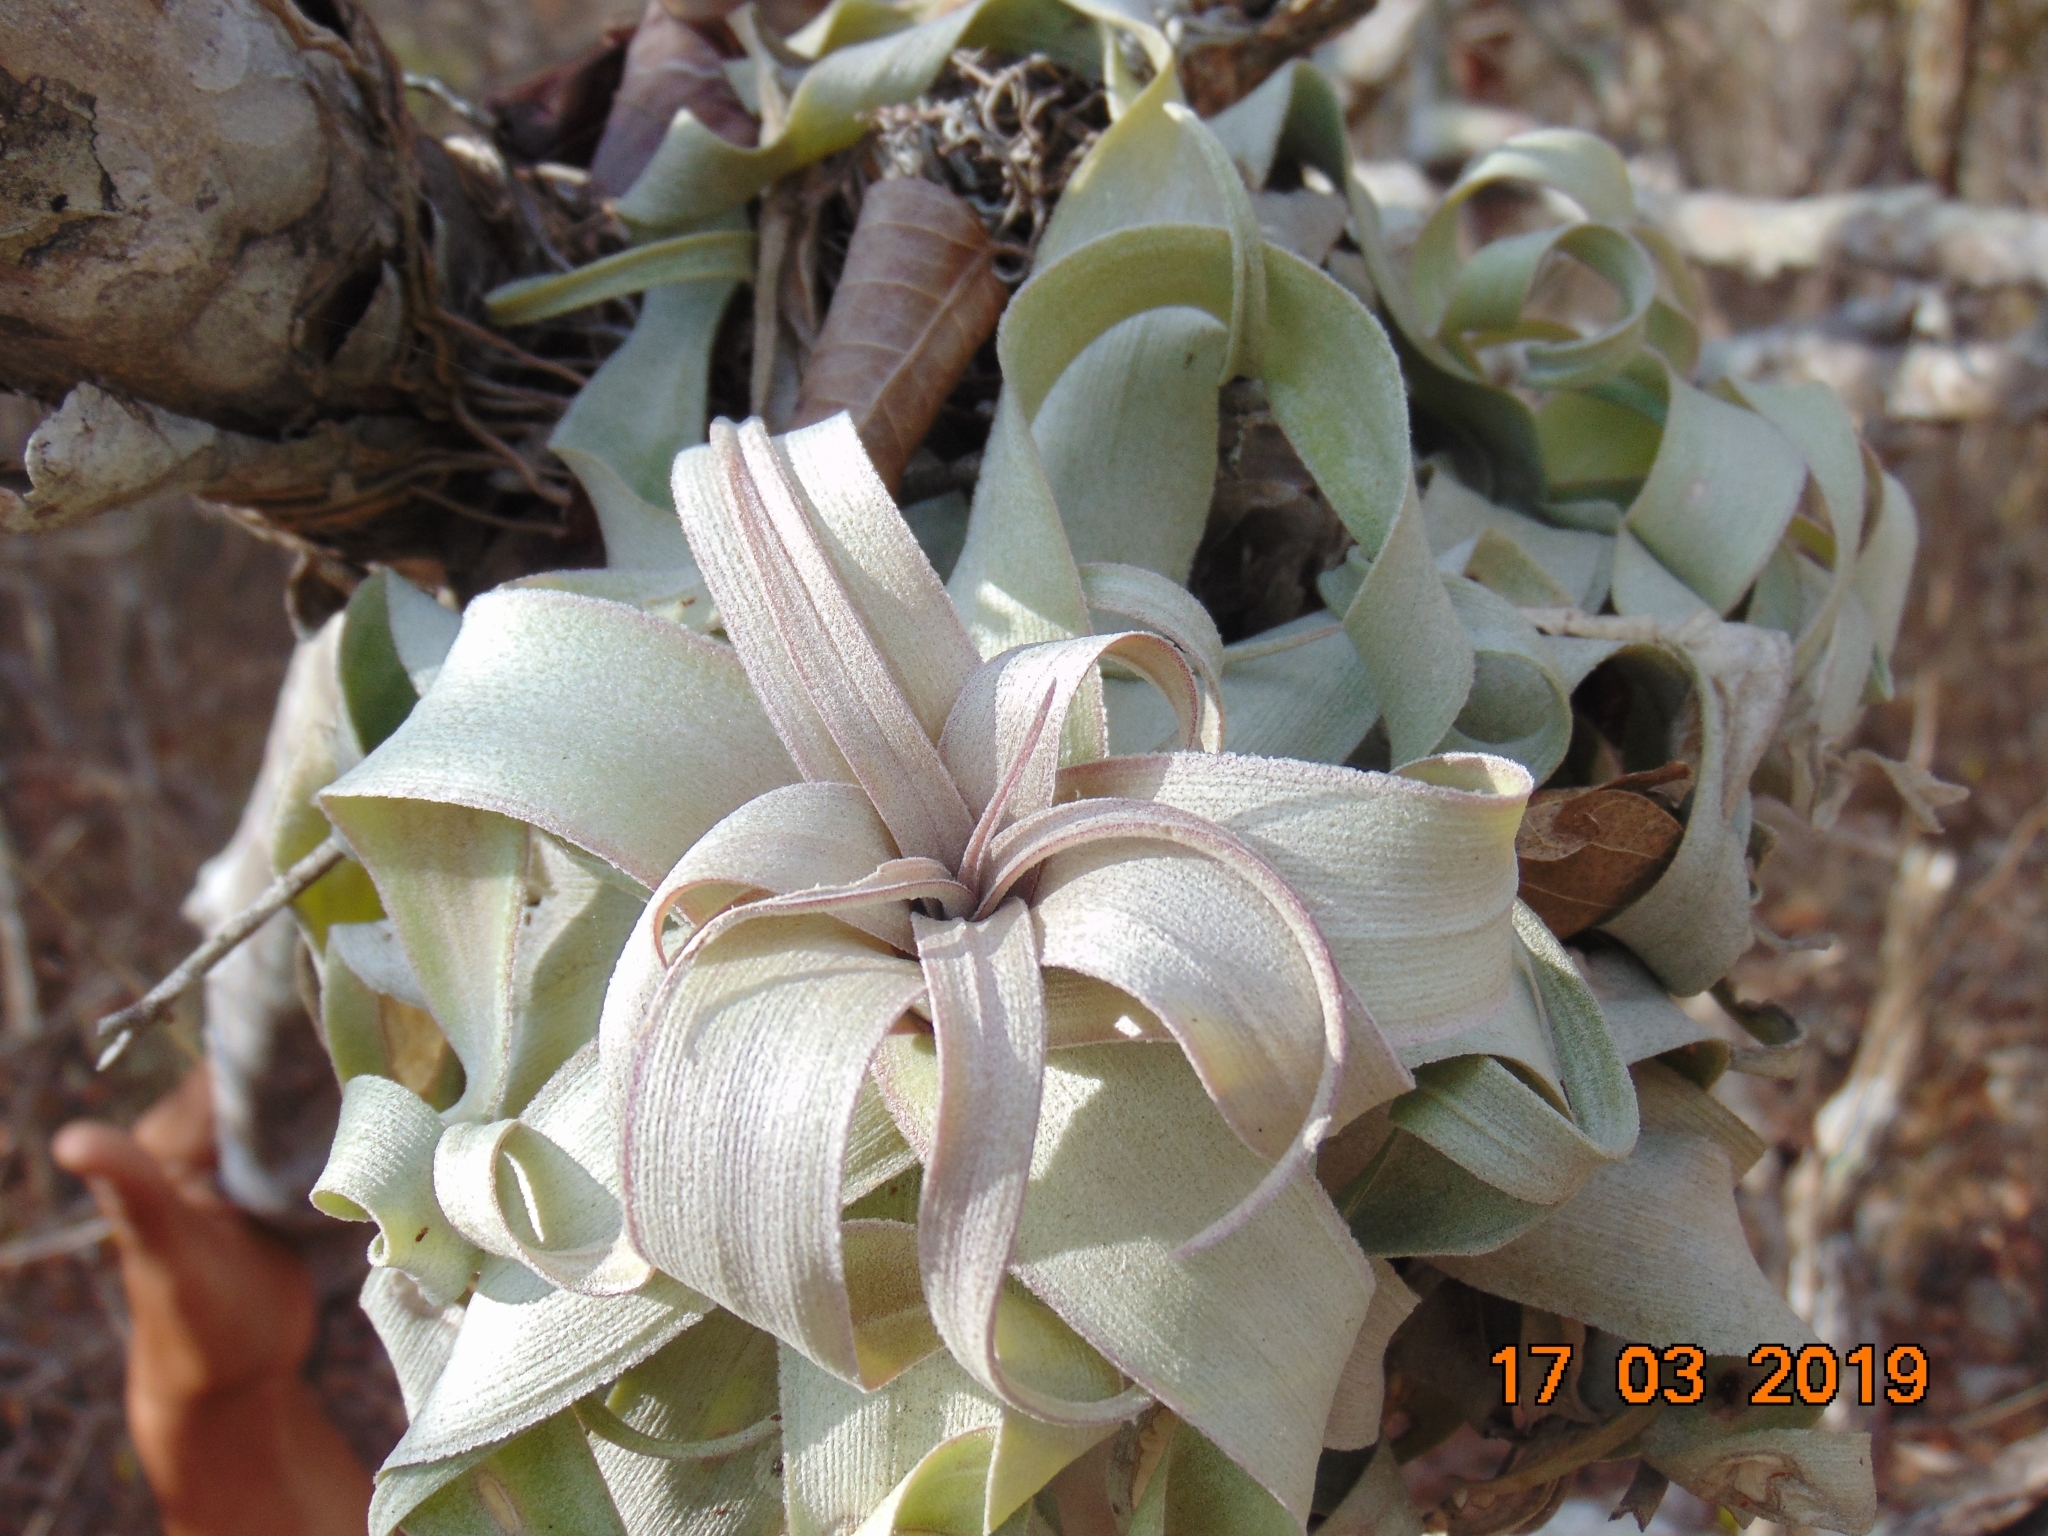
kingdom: Plantae
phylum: Tracheophyta
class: Liliopsida
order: Poales
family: Bromeliaceae
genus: Tillandsia
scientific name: Tillandsia streptophylla
